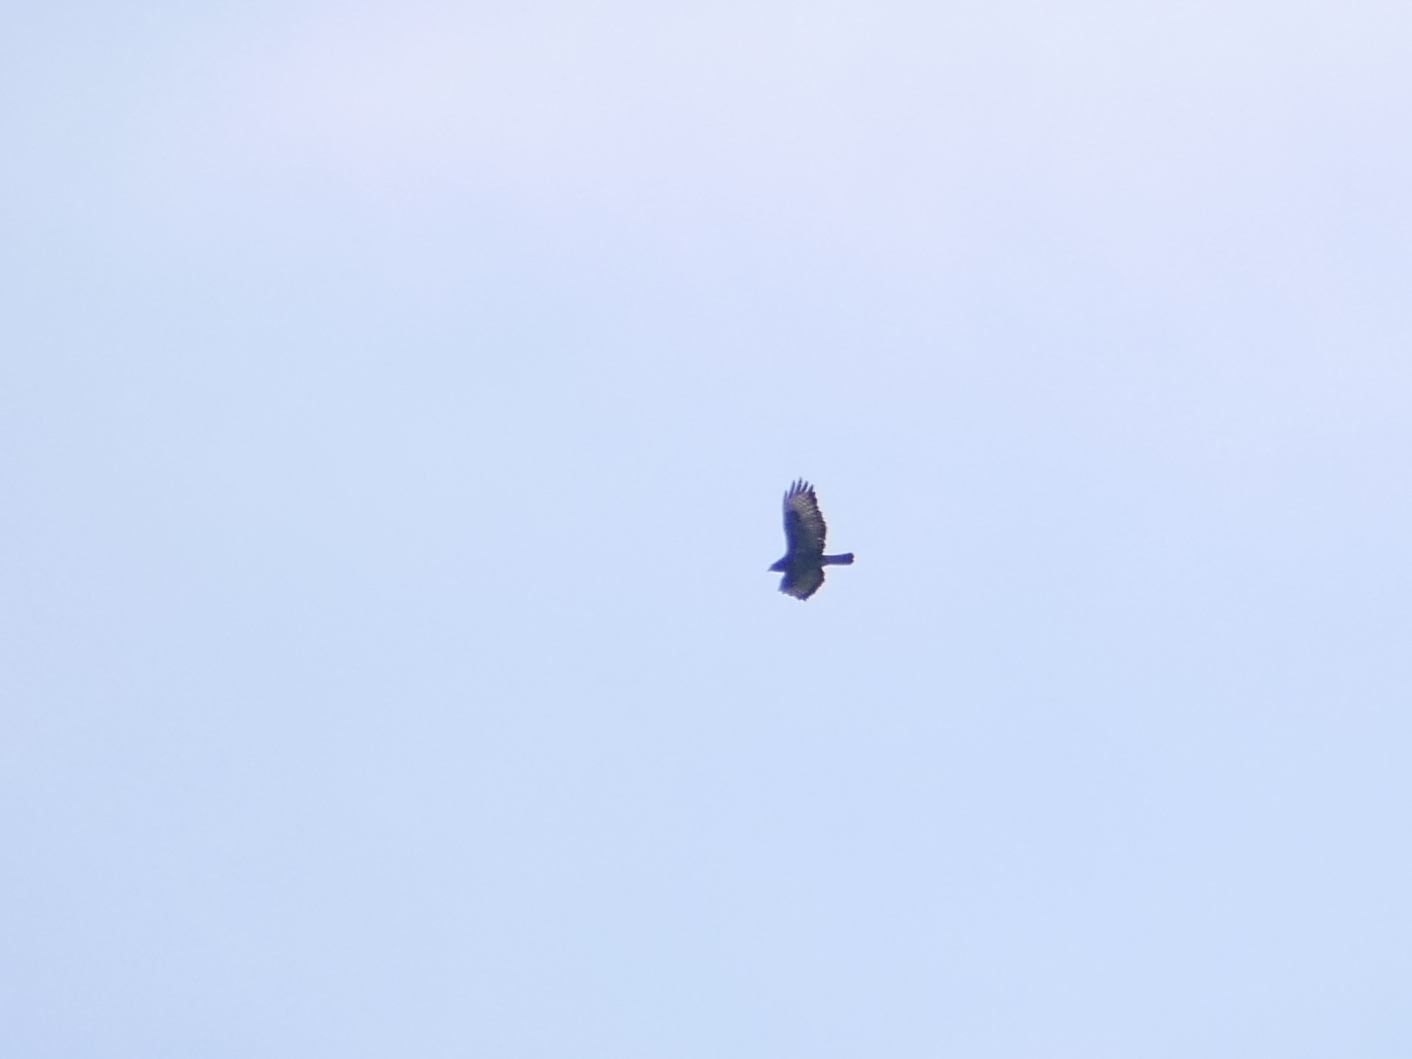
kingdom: Animalia
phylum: Chordata
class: Aves
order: Accipitriformes
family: Accipitridae
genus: Buteo
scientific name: Buteo buteo
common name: Common buzzard
